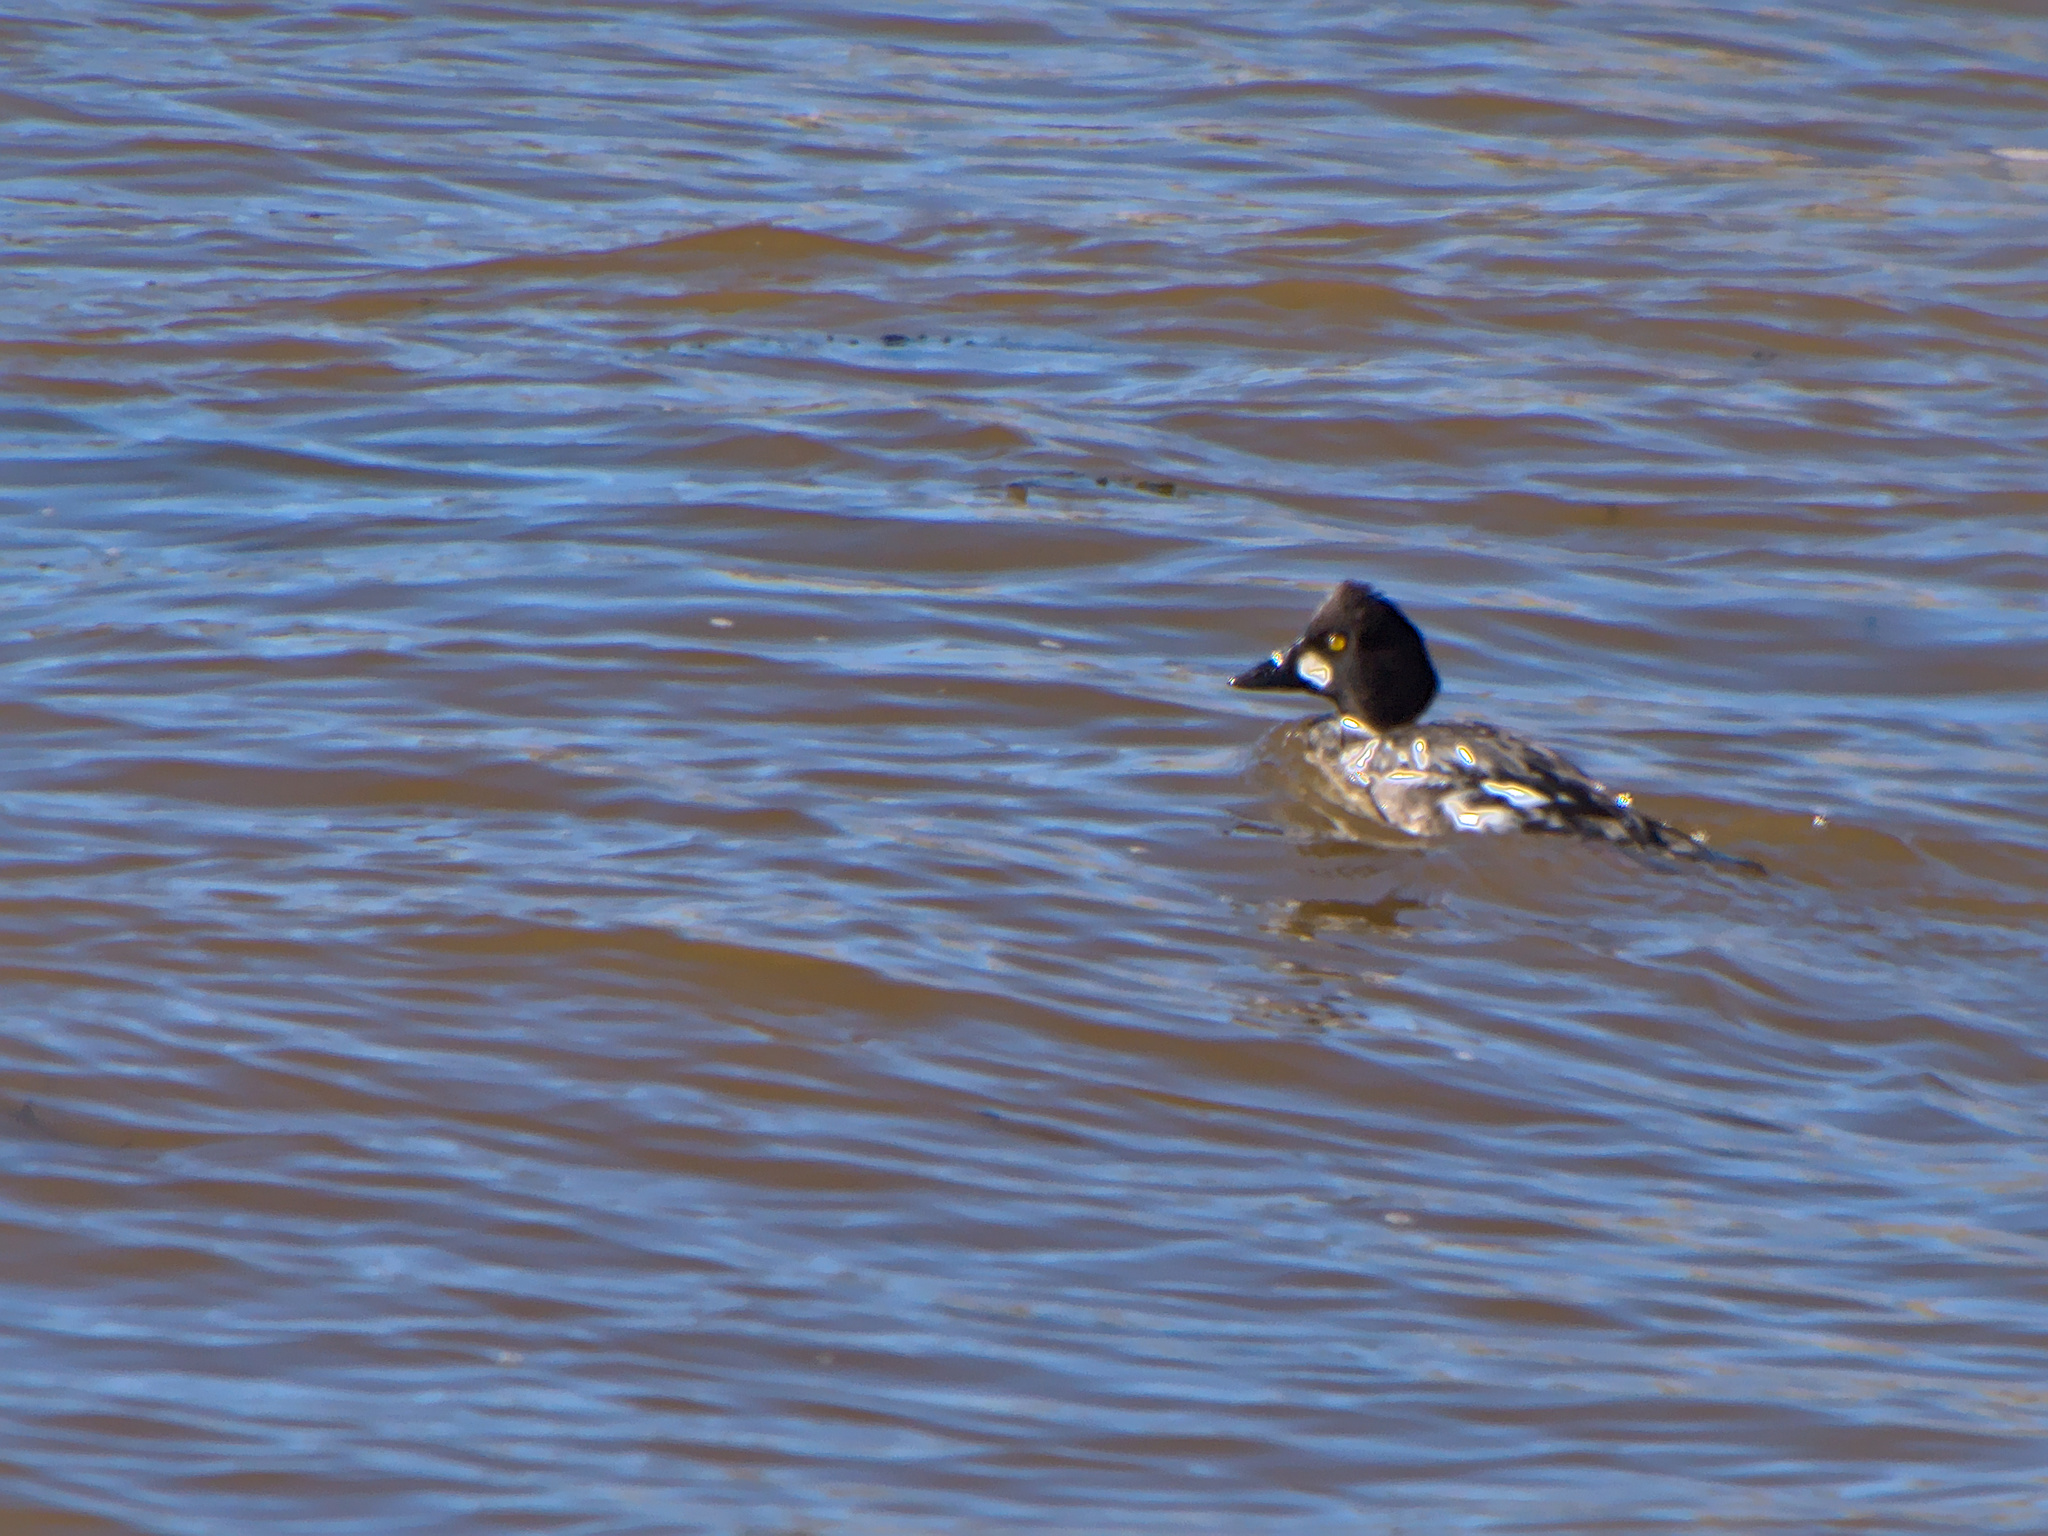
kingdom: Animalia
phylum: Chordata
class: Aves
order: Anseriformes
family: Anatidae
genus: Bucephala
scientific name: Bucephala clangula
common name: Common goldeneye
